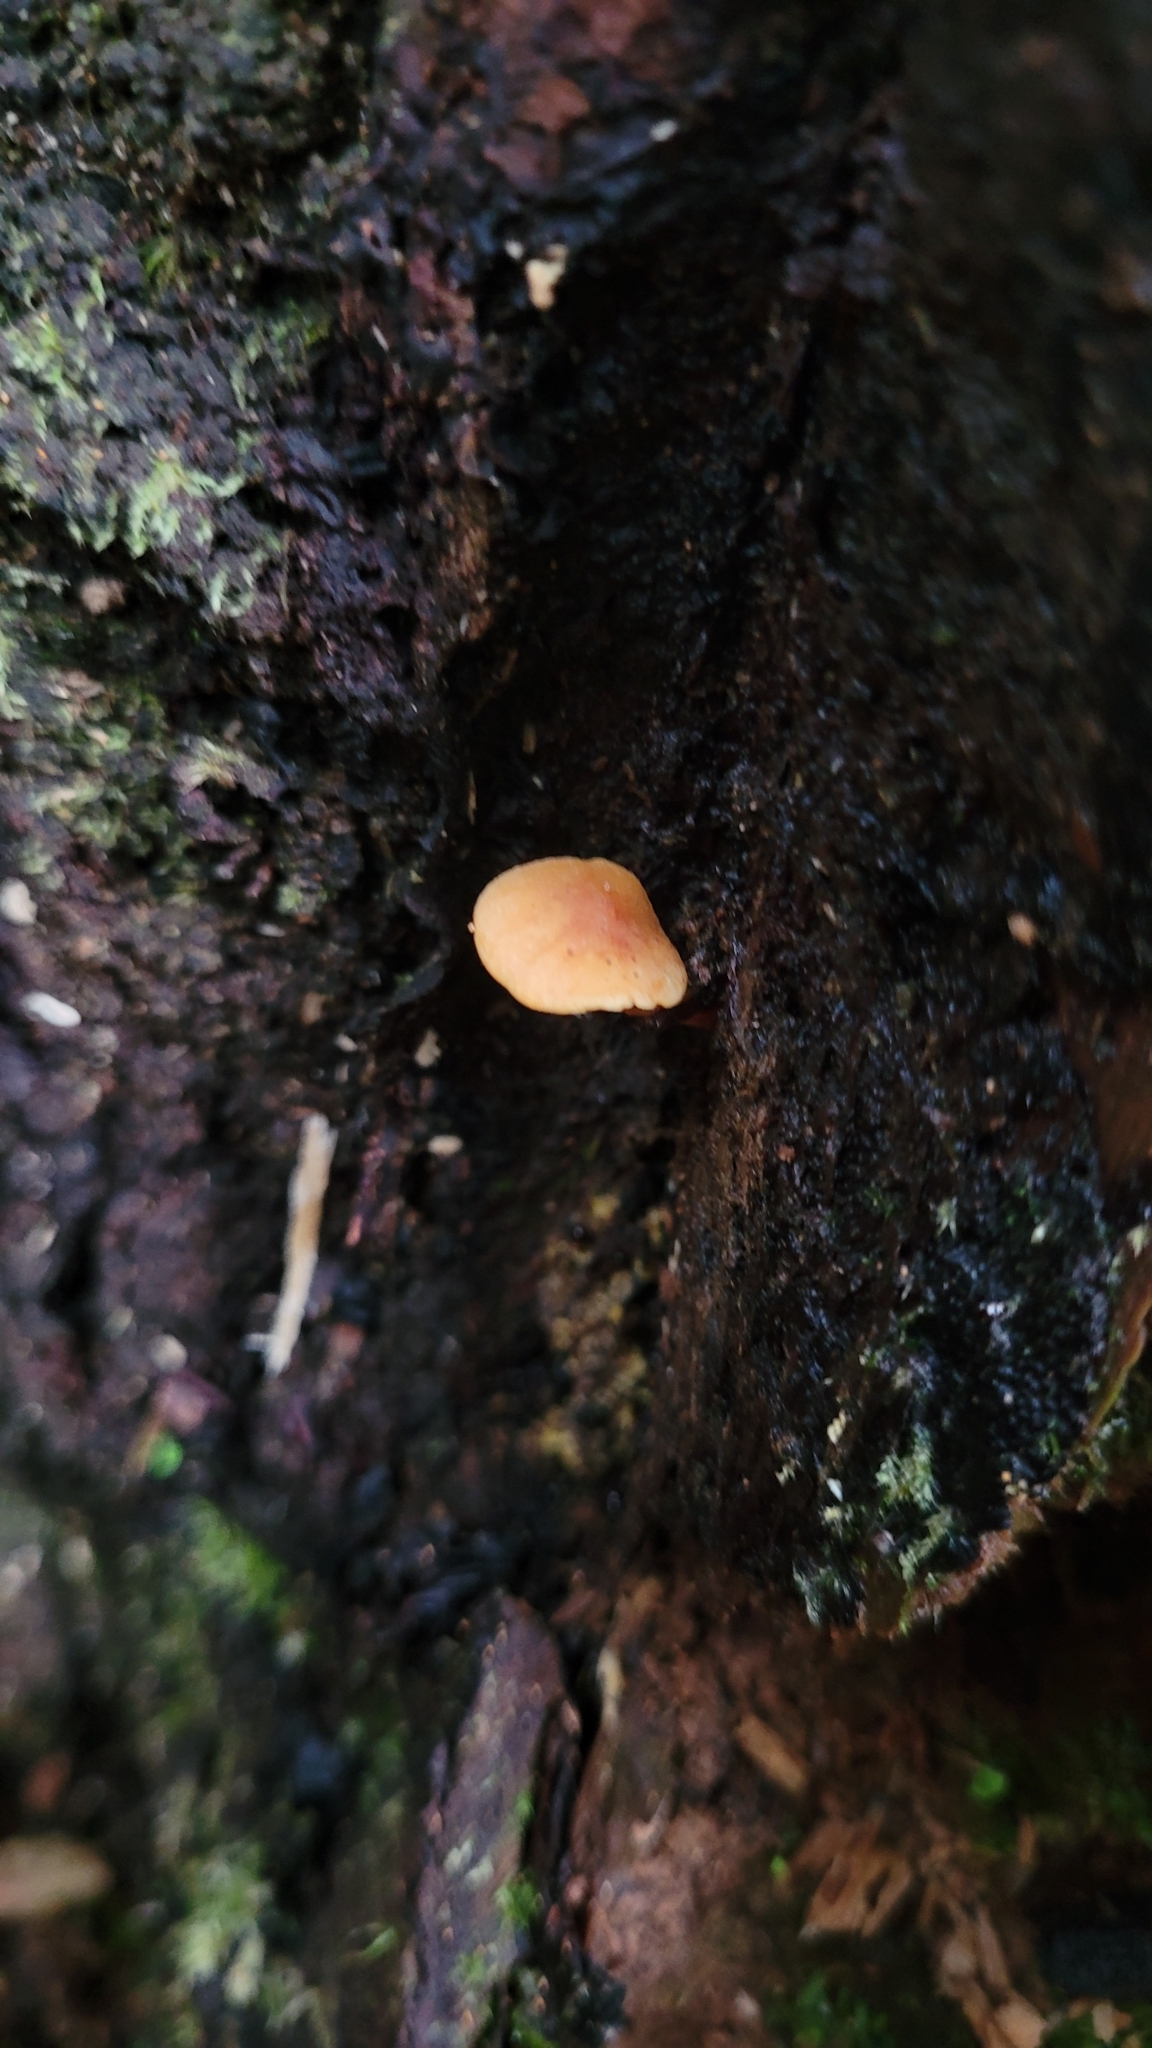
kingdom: Fungi
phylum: Basidiomycota
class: Agaricomycetes
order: Agaricales
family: Strophariaceae
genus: Hypholoma
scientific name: Hypholoma acutum
